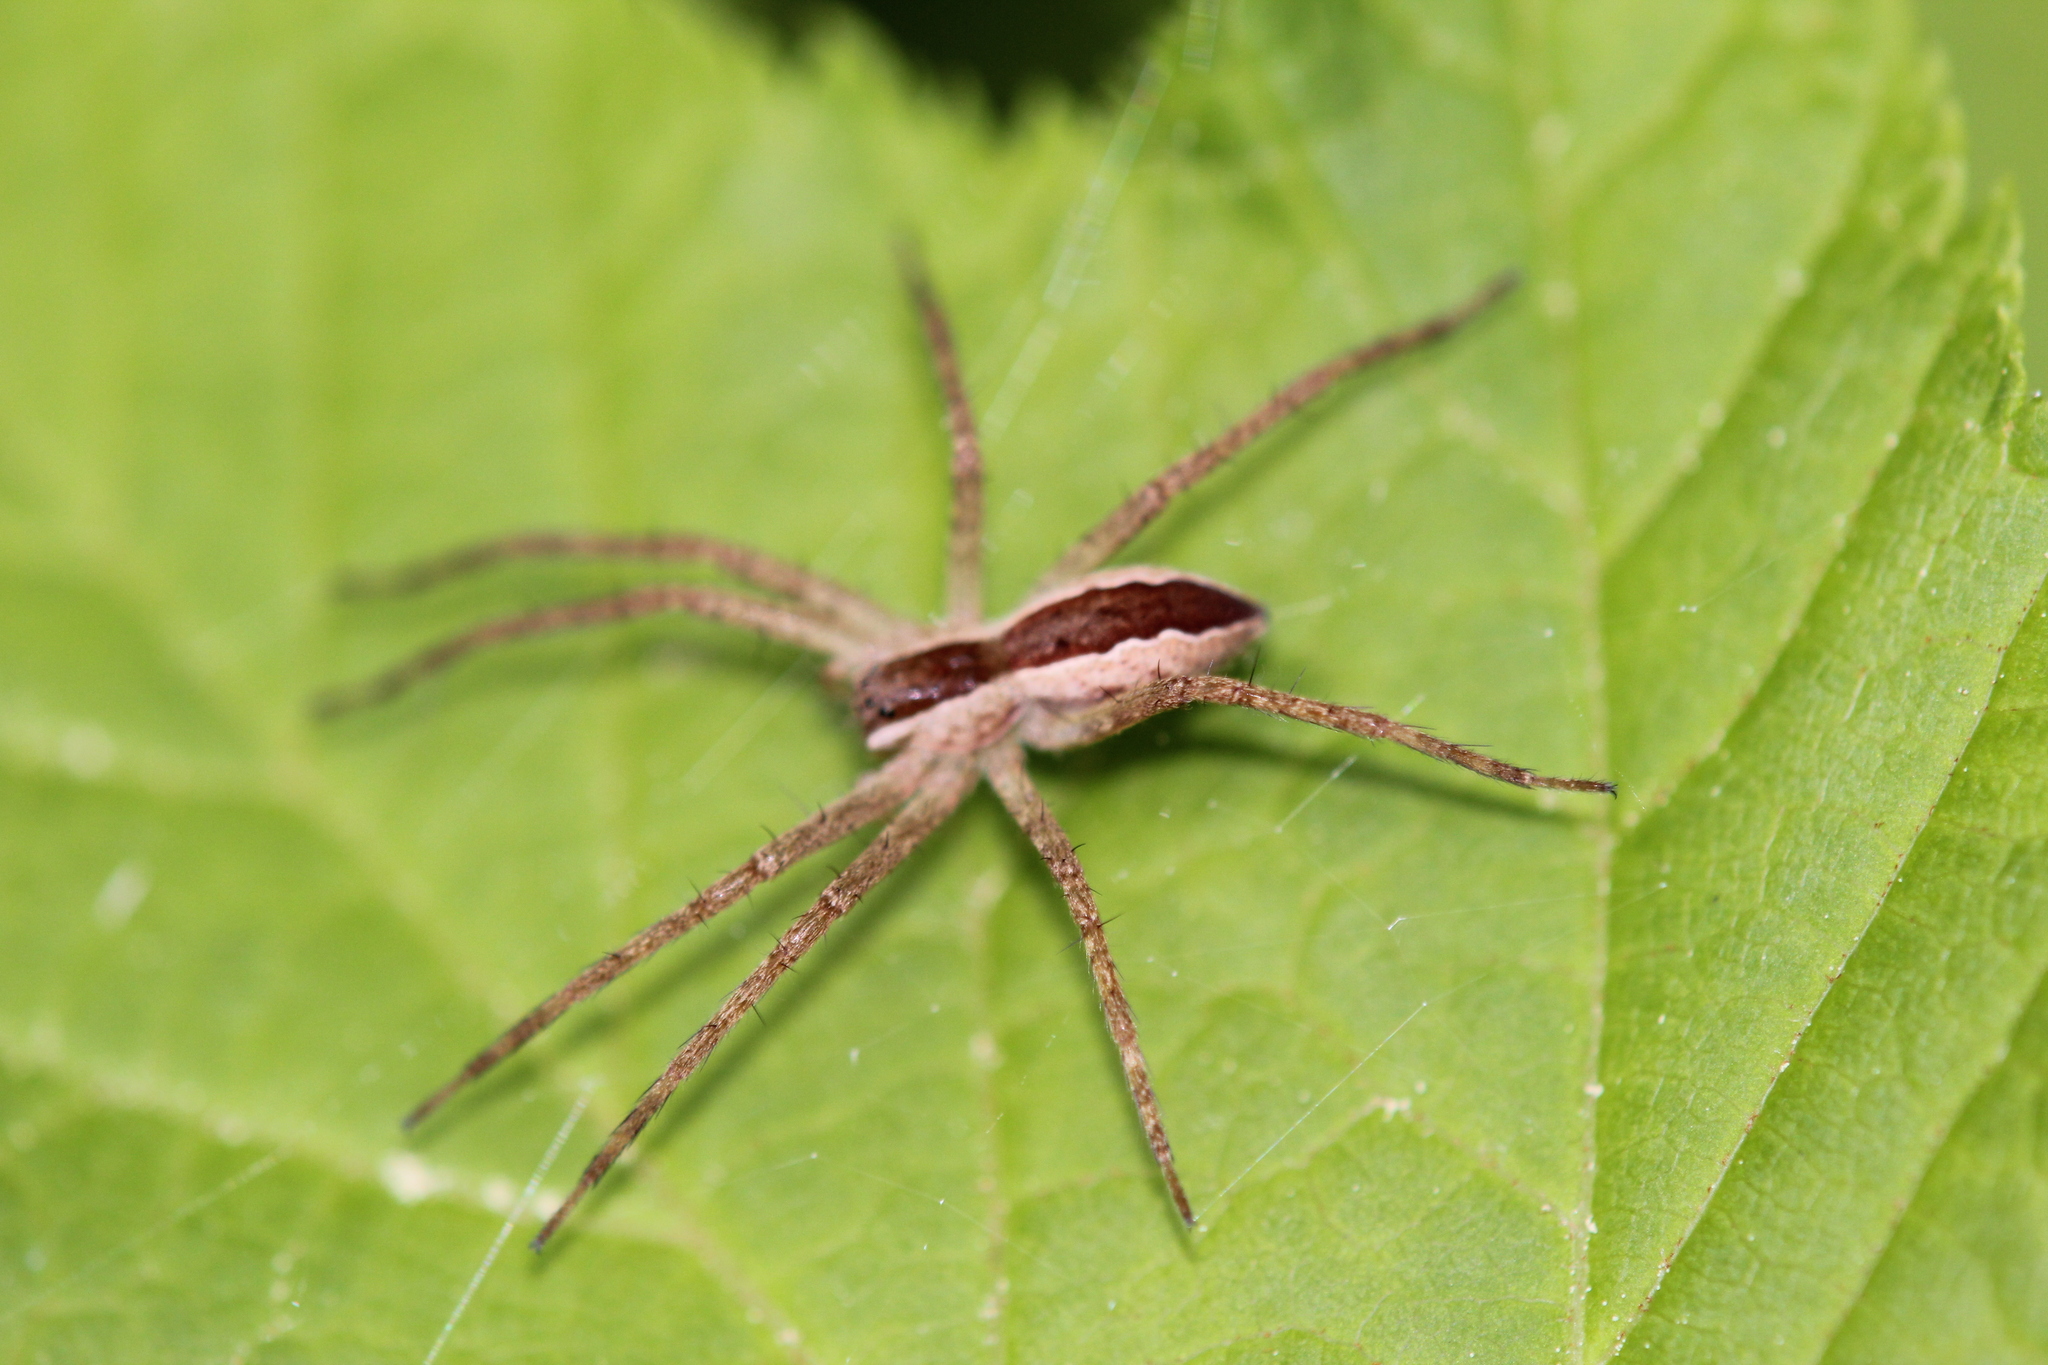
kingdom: Animalia
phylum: Arthropoda
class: Arachnida
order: Araneae
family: Pisauridae
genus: Pisaurina
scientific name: Pisaurina mira
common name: American nursery web spider
